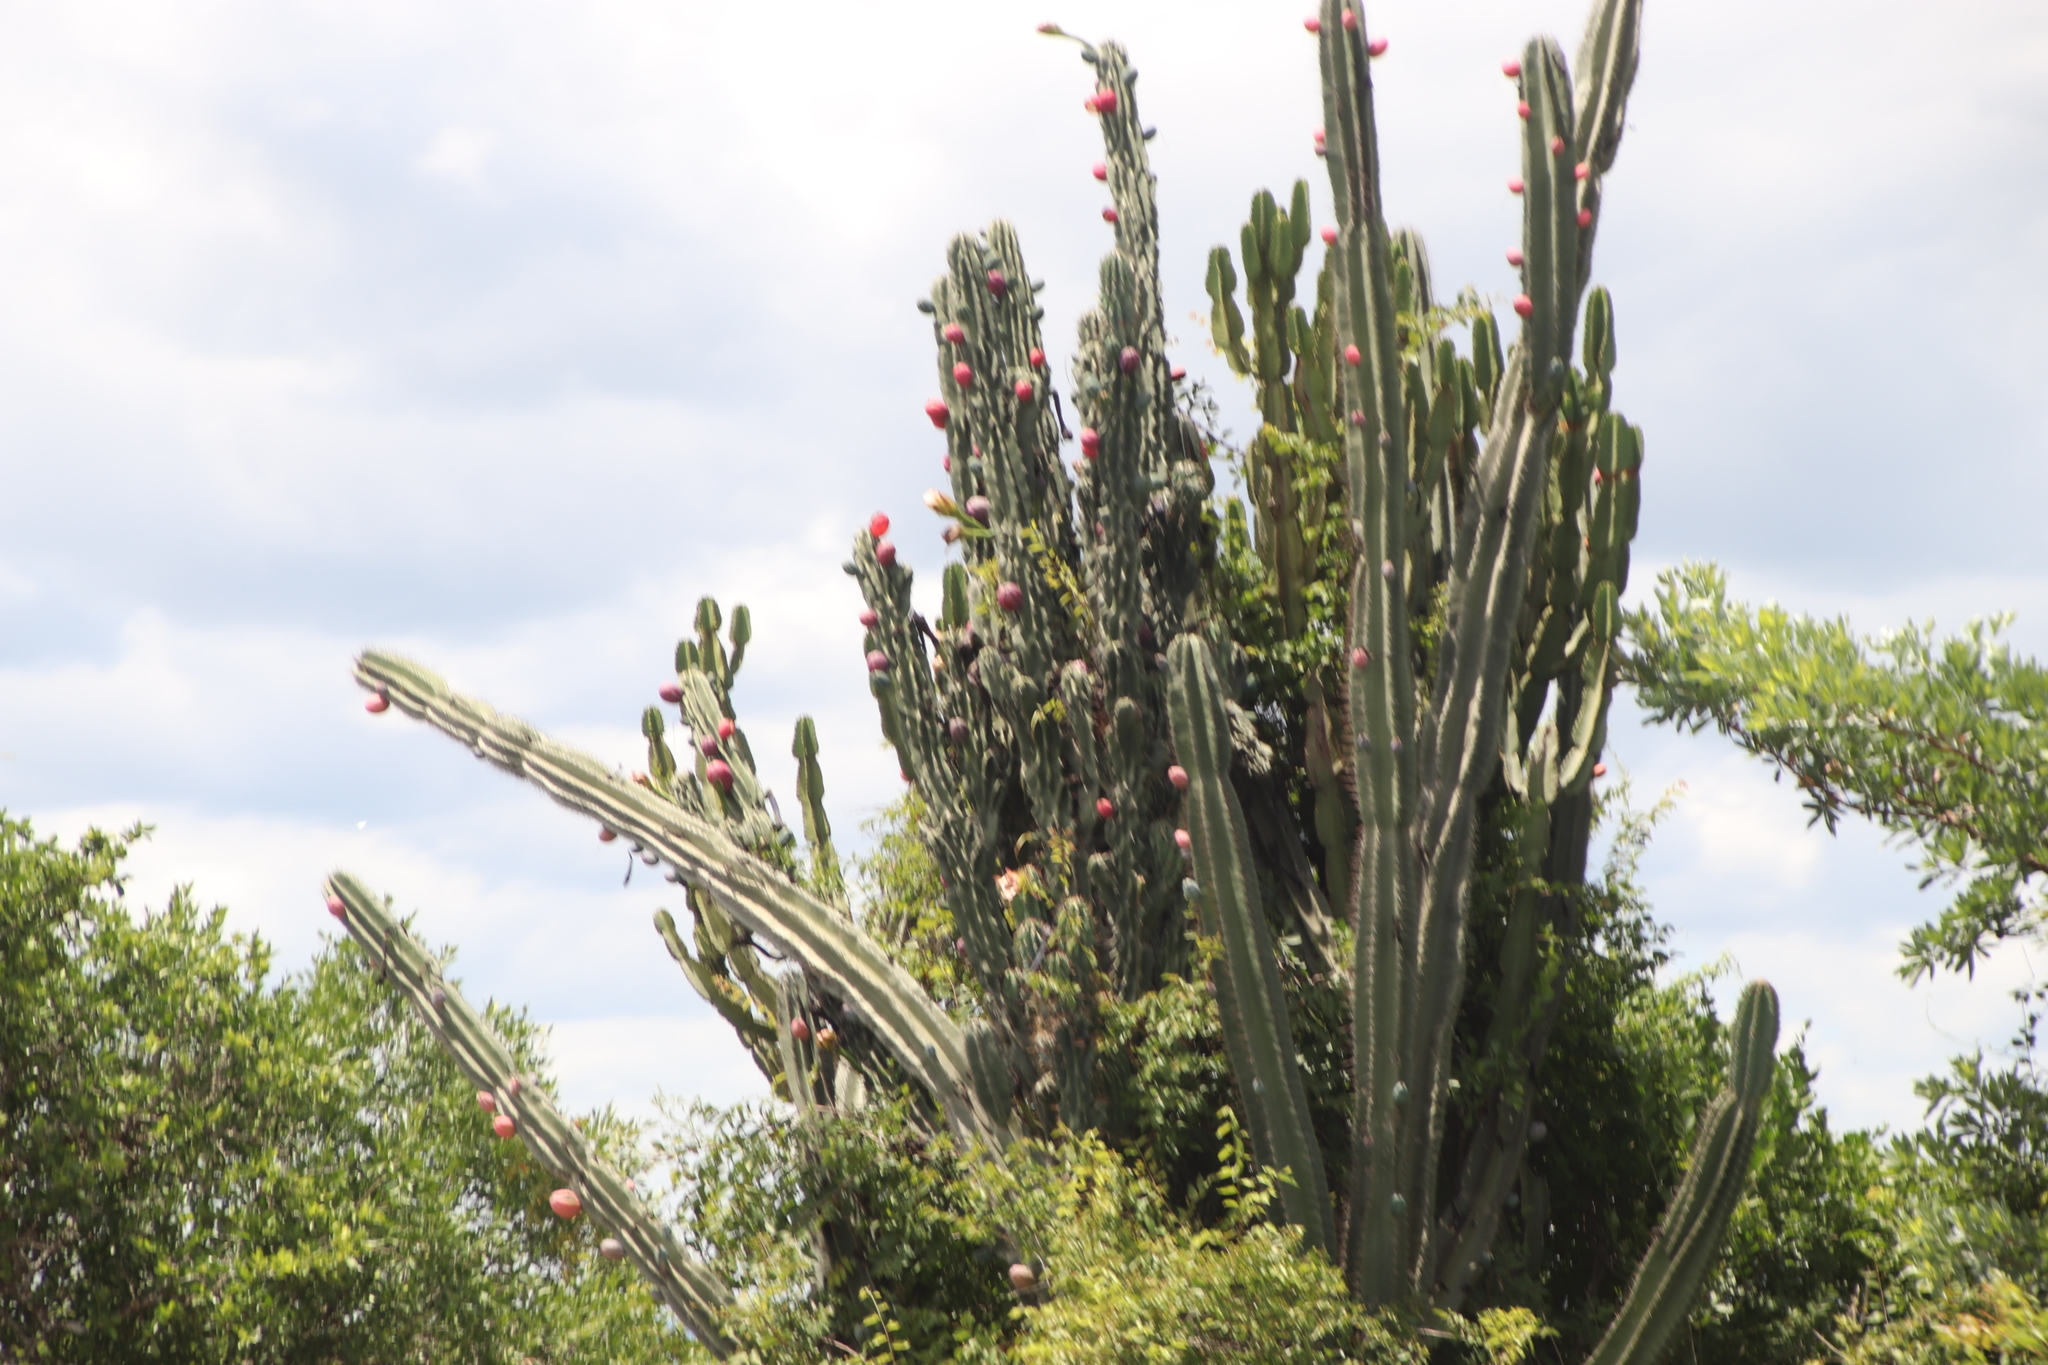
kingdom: Plantae
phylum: Tracheophyta
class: Magnoliopsida
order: Caryophyllales
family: Cactaceae
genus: Cereus
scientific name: Cereus jamacaru
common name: Queen-of-the-night
